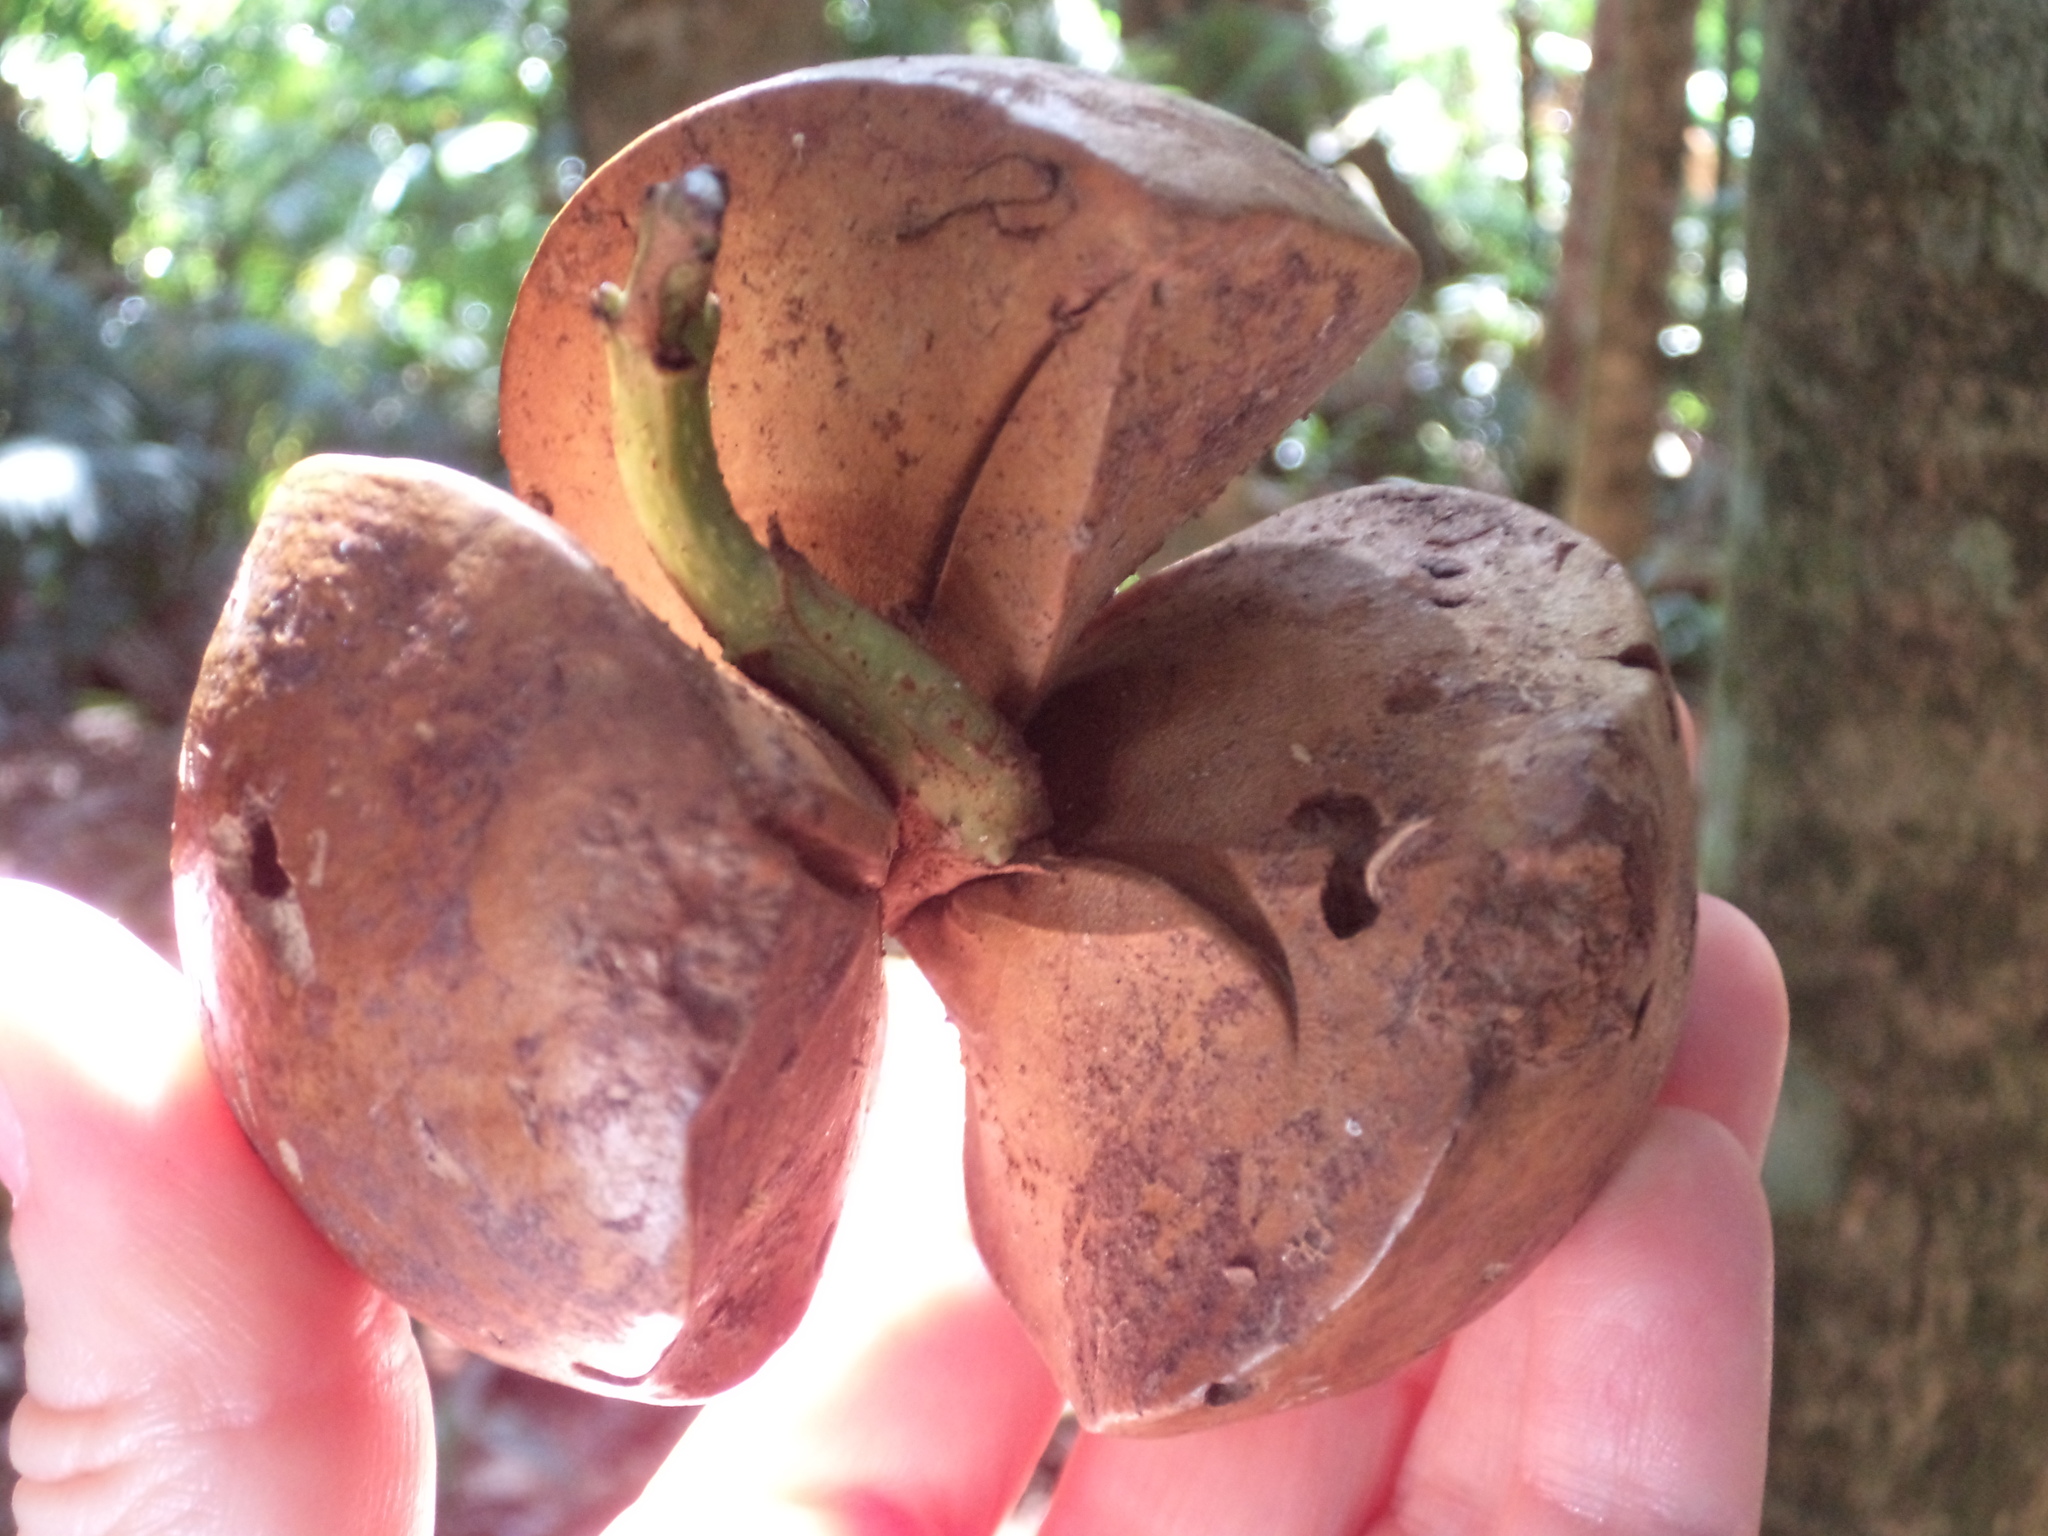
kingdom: Plantae
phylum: Tracheophyta
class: Magnoliopsida
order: Laurales
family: Calycanthaceae
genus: Idiospermum
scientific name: Idiospermum australiense
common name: Idiot-fruit
